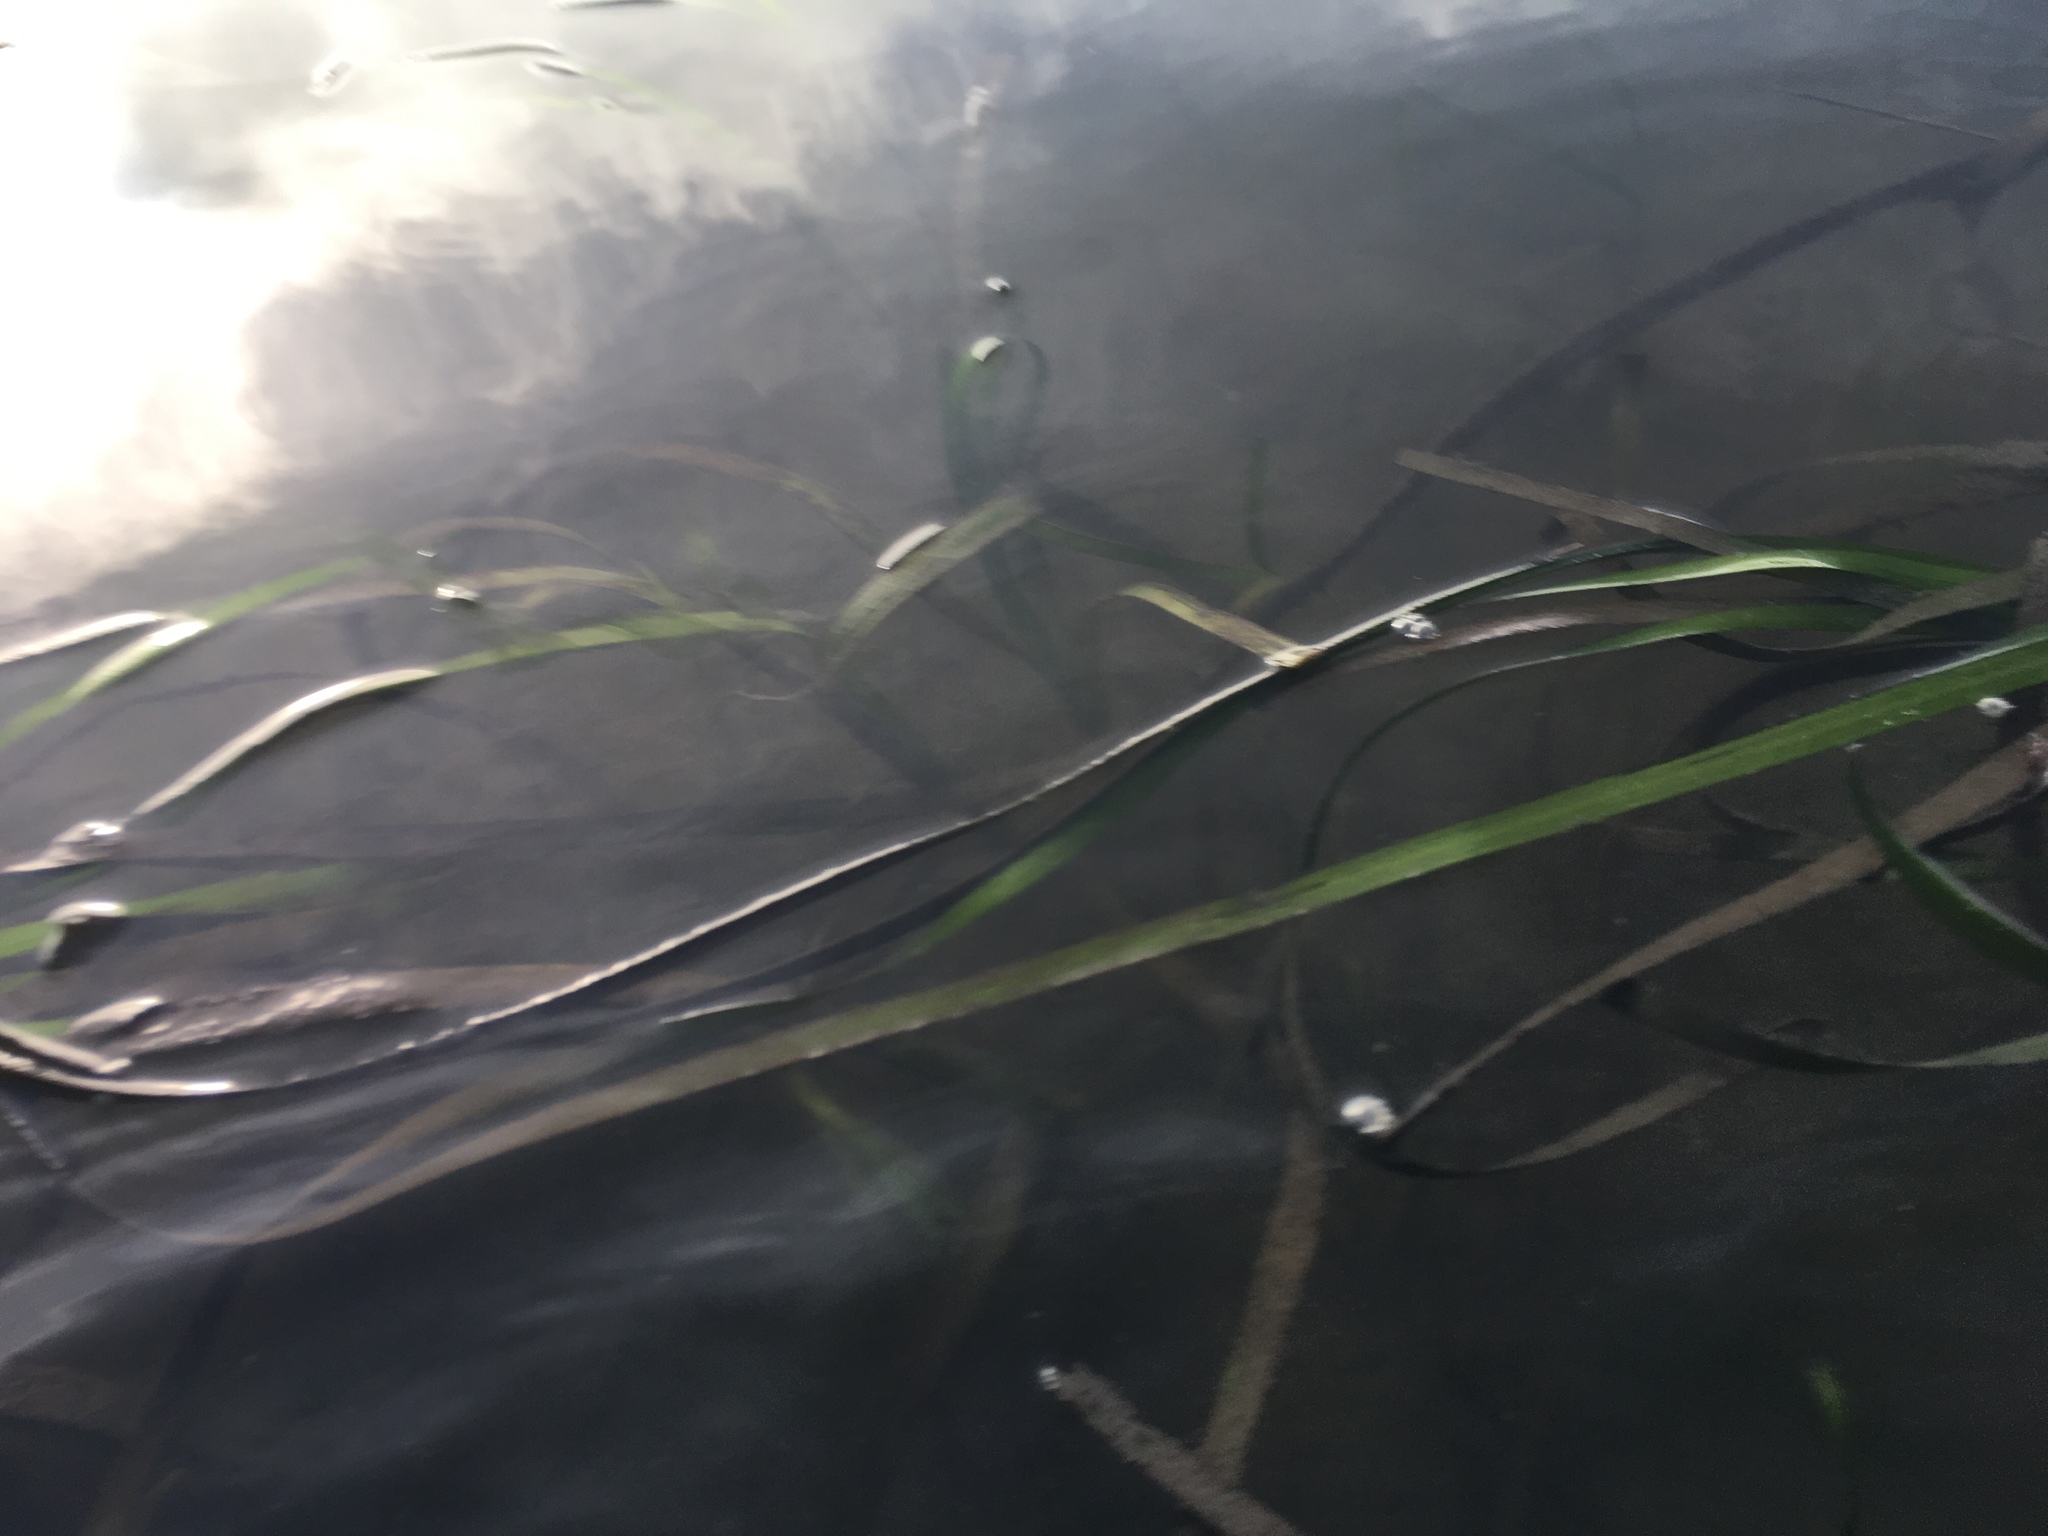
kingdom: Plantae
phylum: Tracheophyta
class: Liliopsida
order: Alismatales
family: Zosteraceae
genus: Zostera
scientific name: Zostera marina
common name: Eelgrass
